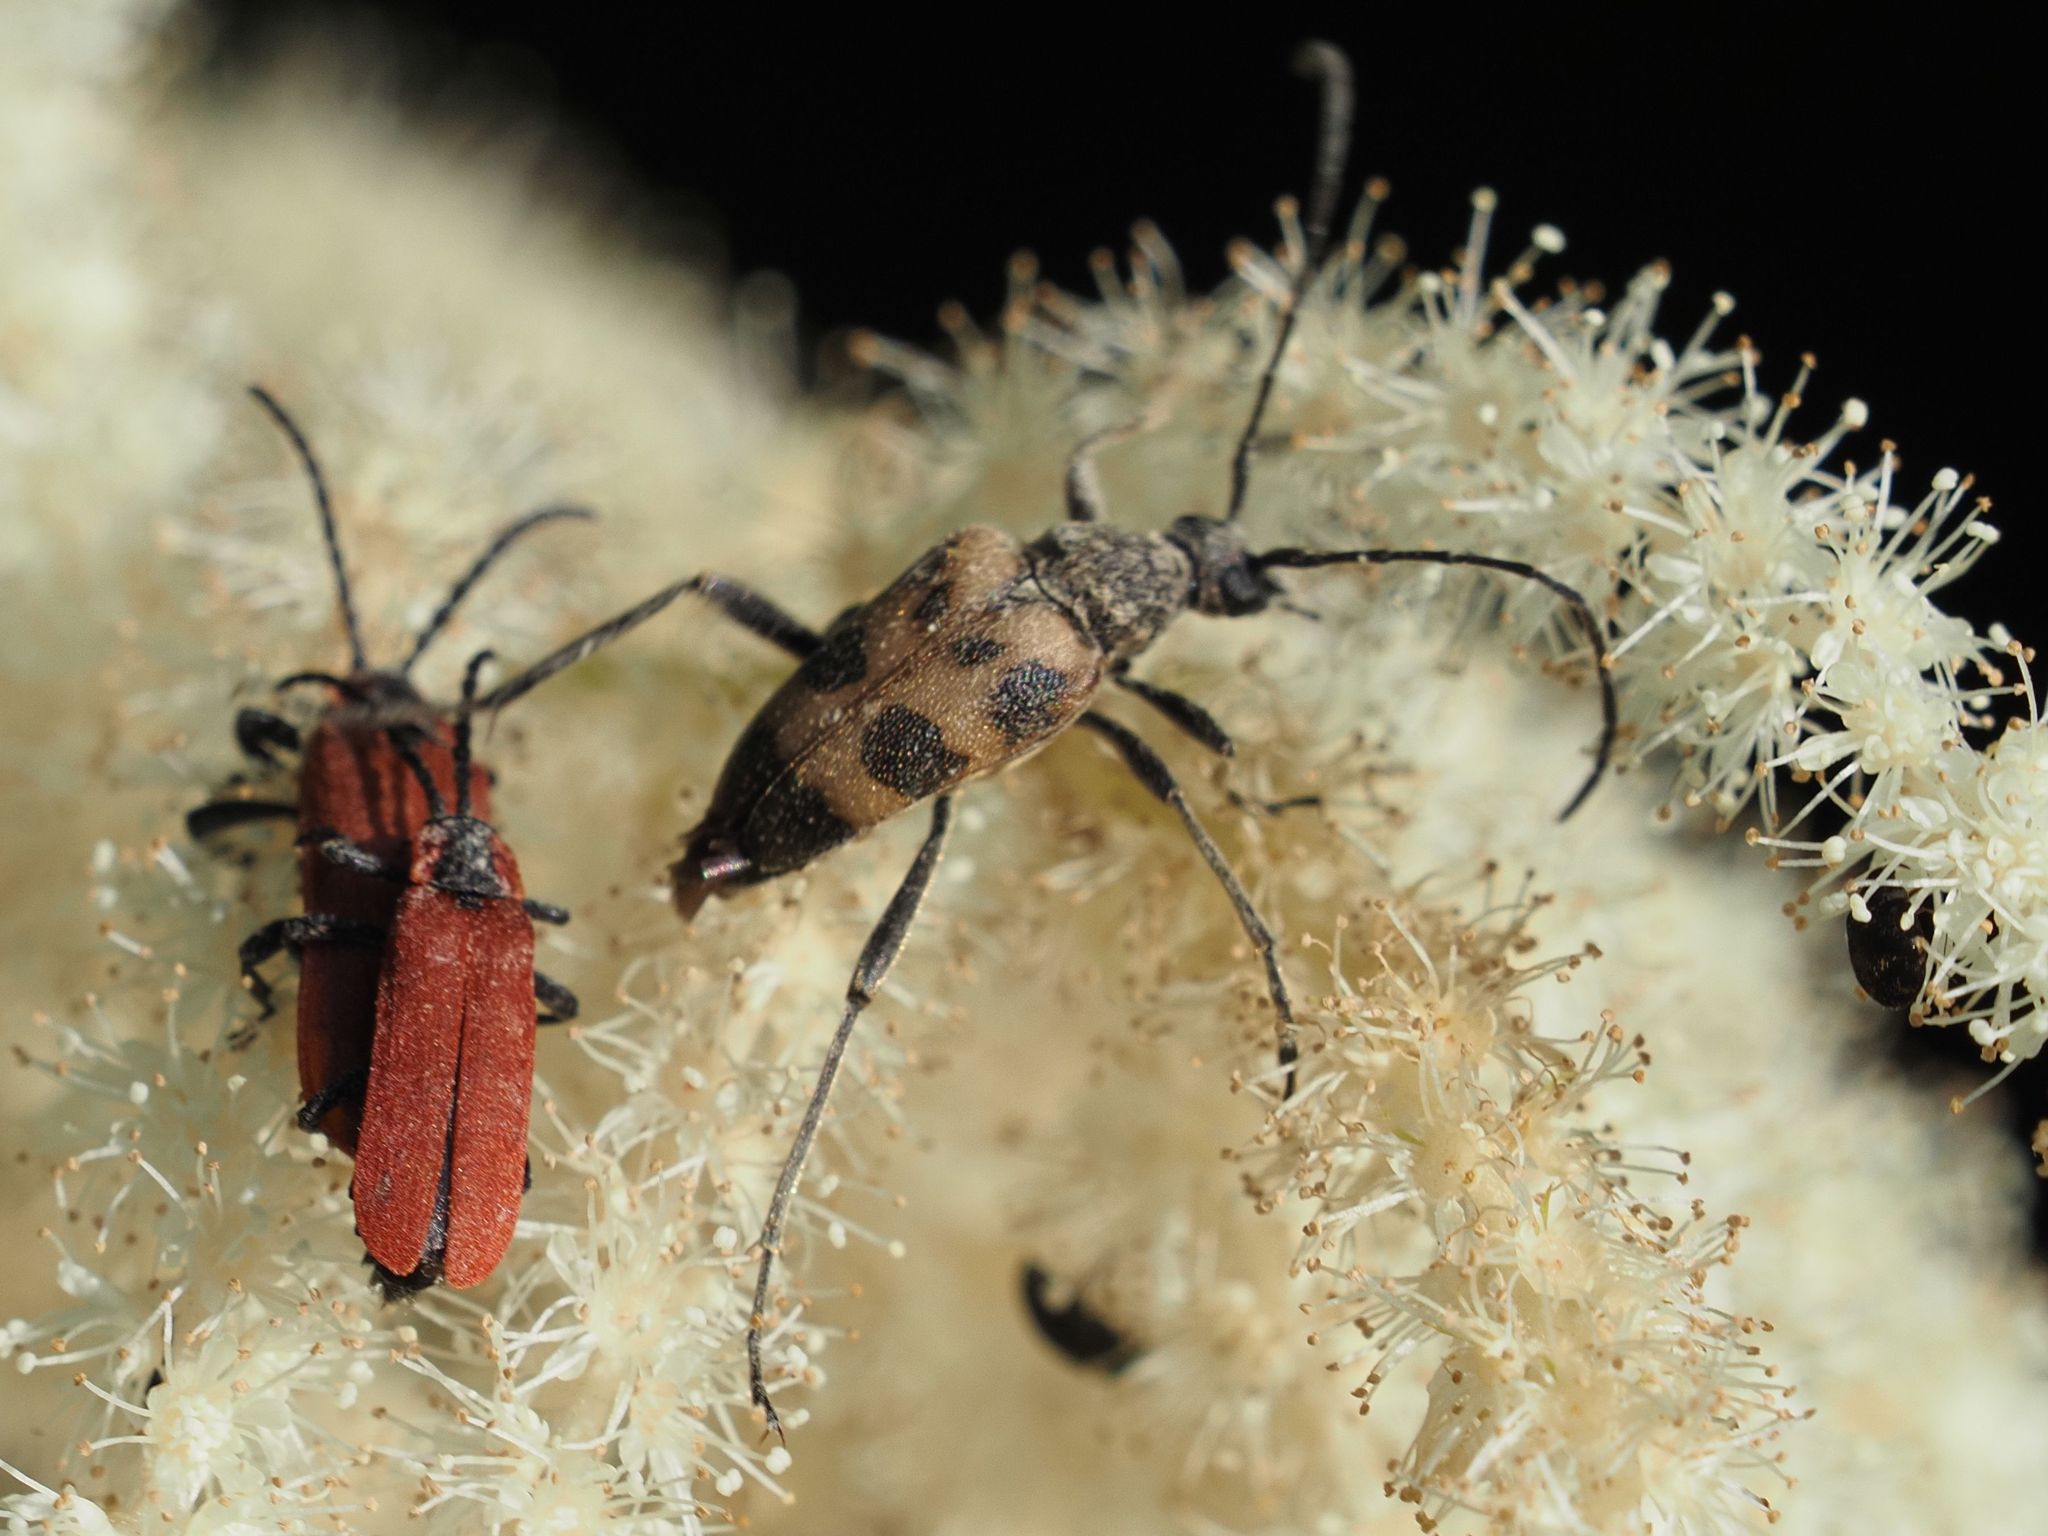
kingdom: Animalia
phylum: Arthropoda
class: Insecta
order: Coleoptera
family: Cerambycidae
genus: Pachytodes
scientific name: Pachytodes cerambyciformis
